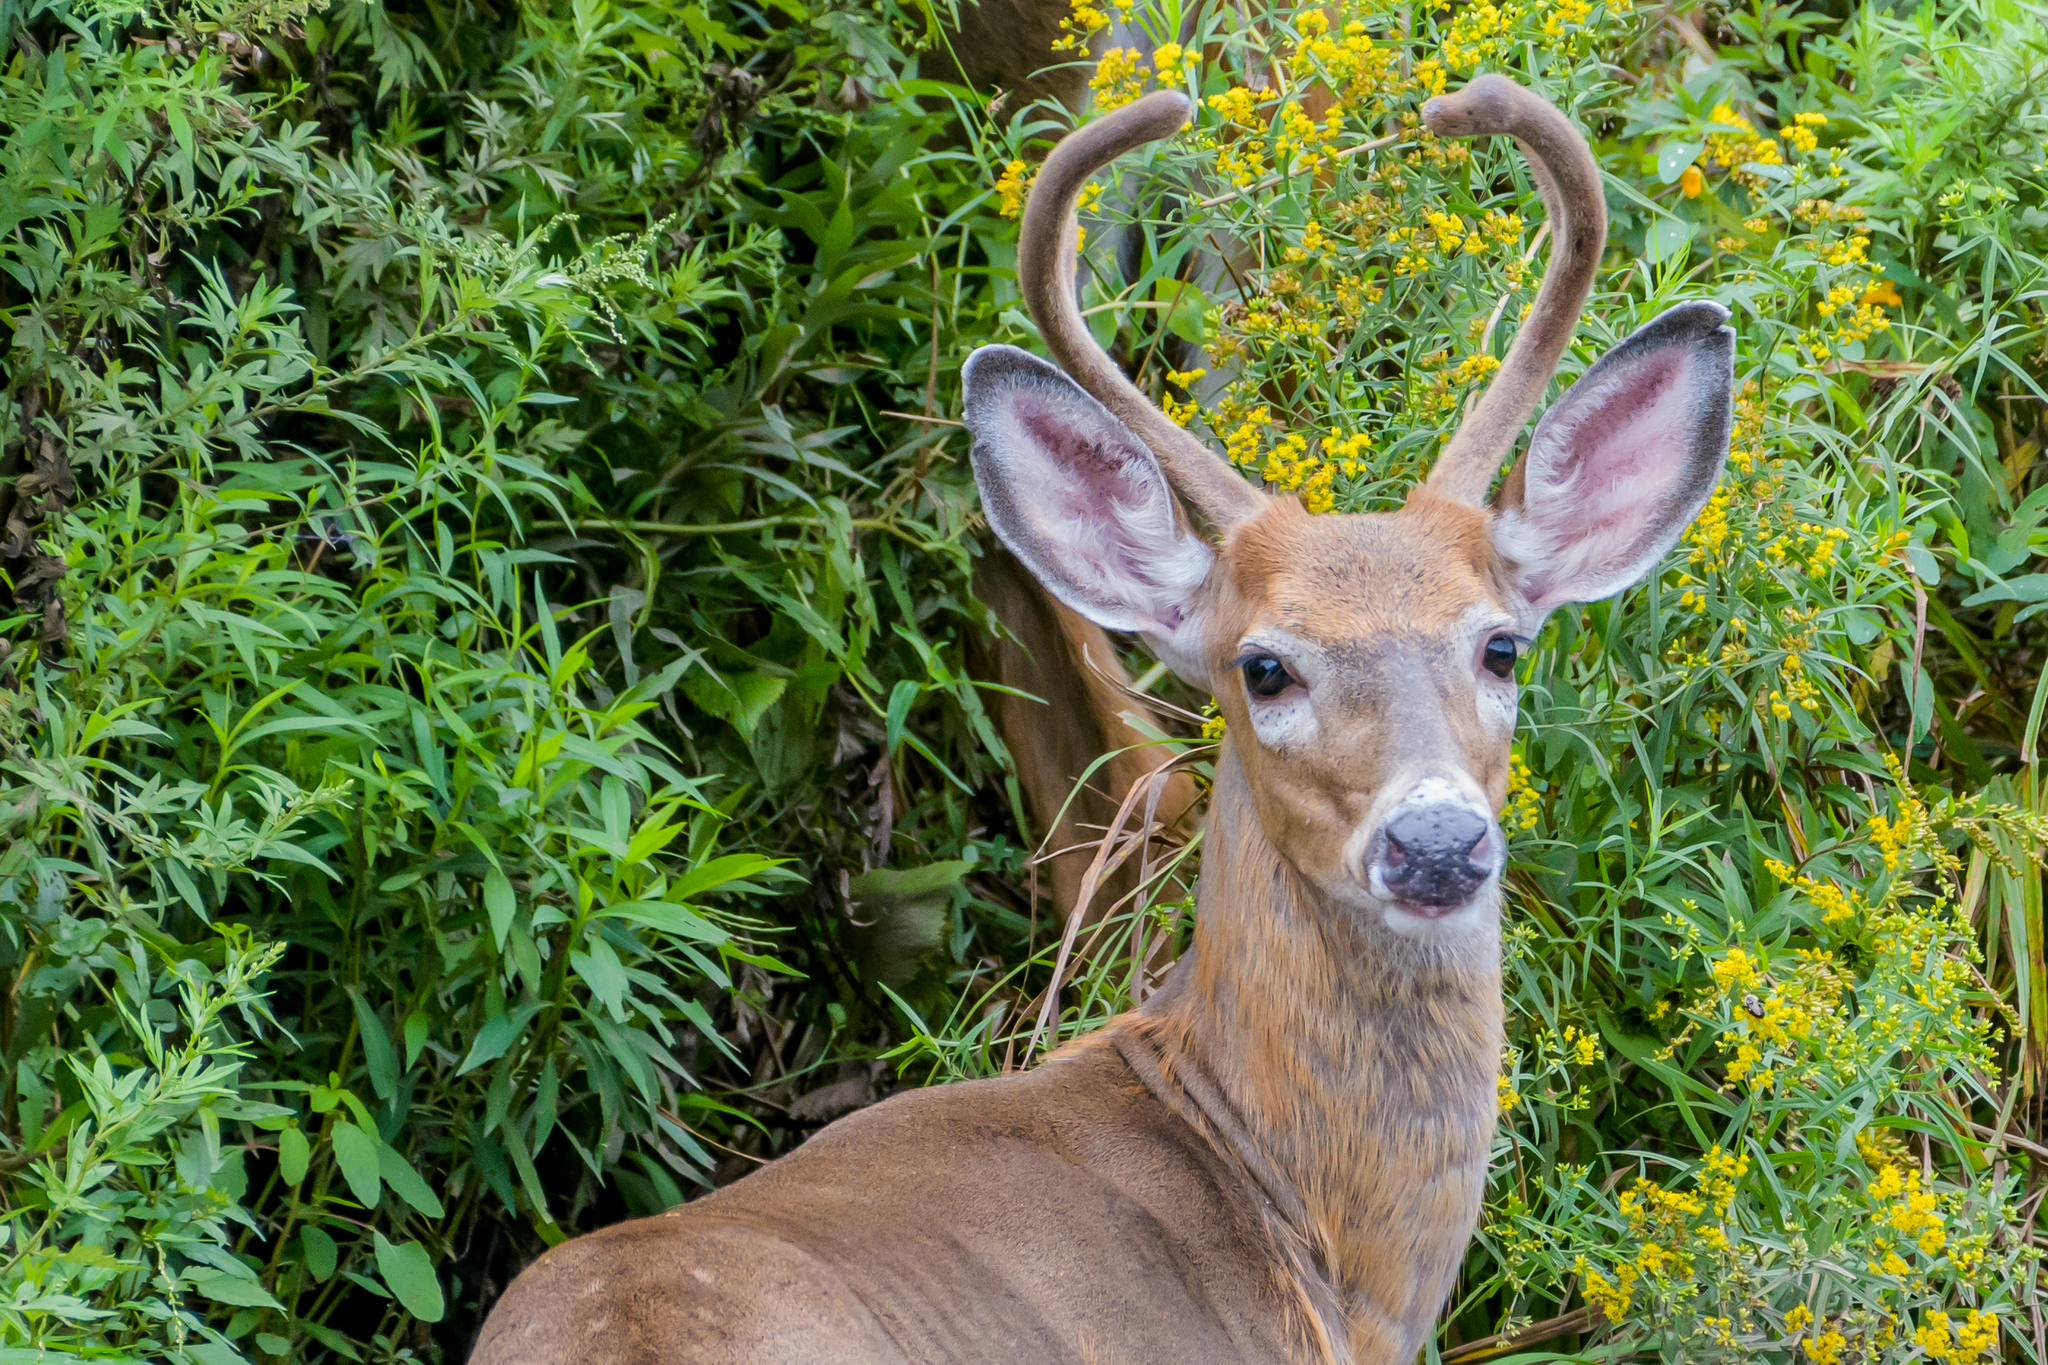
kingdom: Animalia
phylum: Chordata
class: Mammalia
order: Artiodactyla
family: Cervidae
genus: Odocoileus
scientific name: Odocoileus virginianus
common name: White-tailed deer
